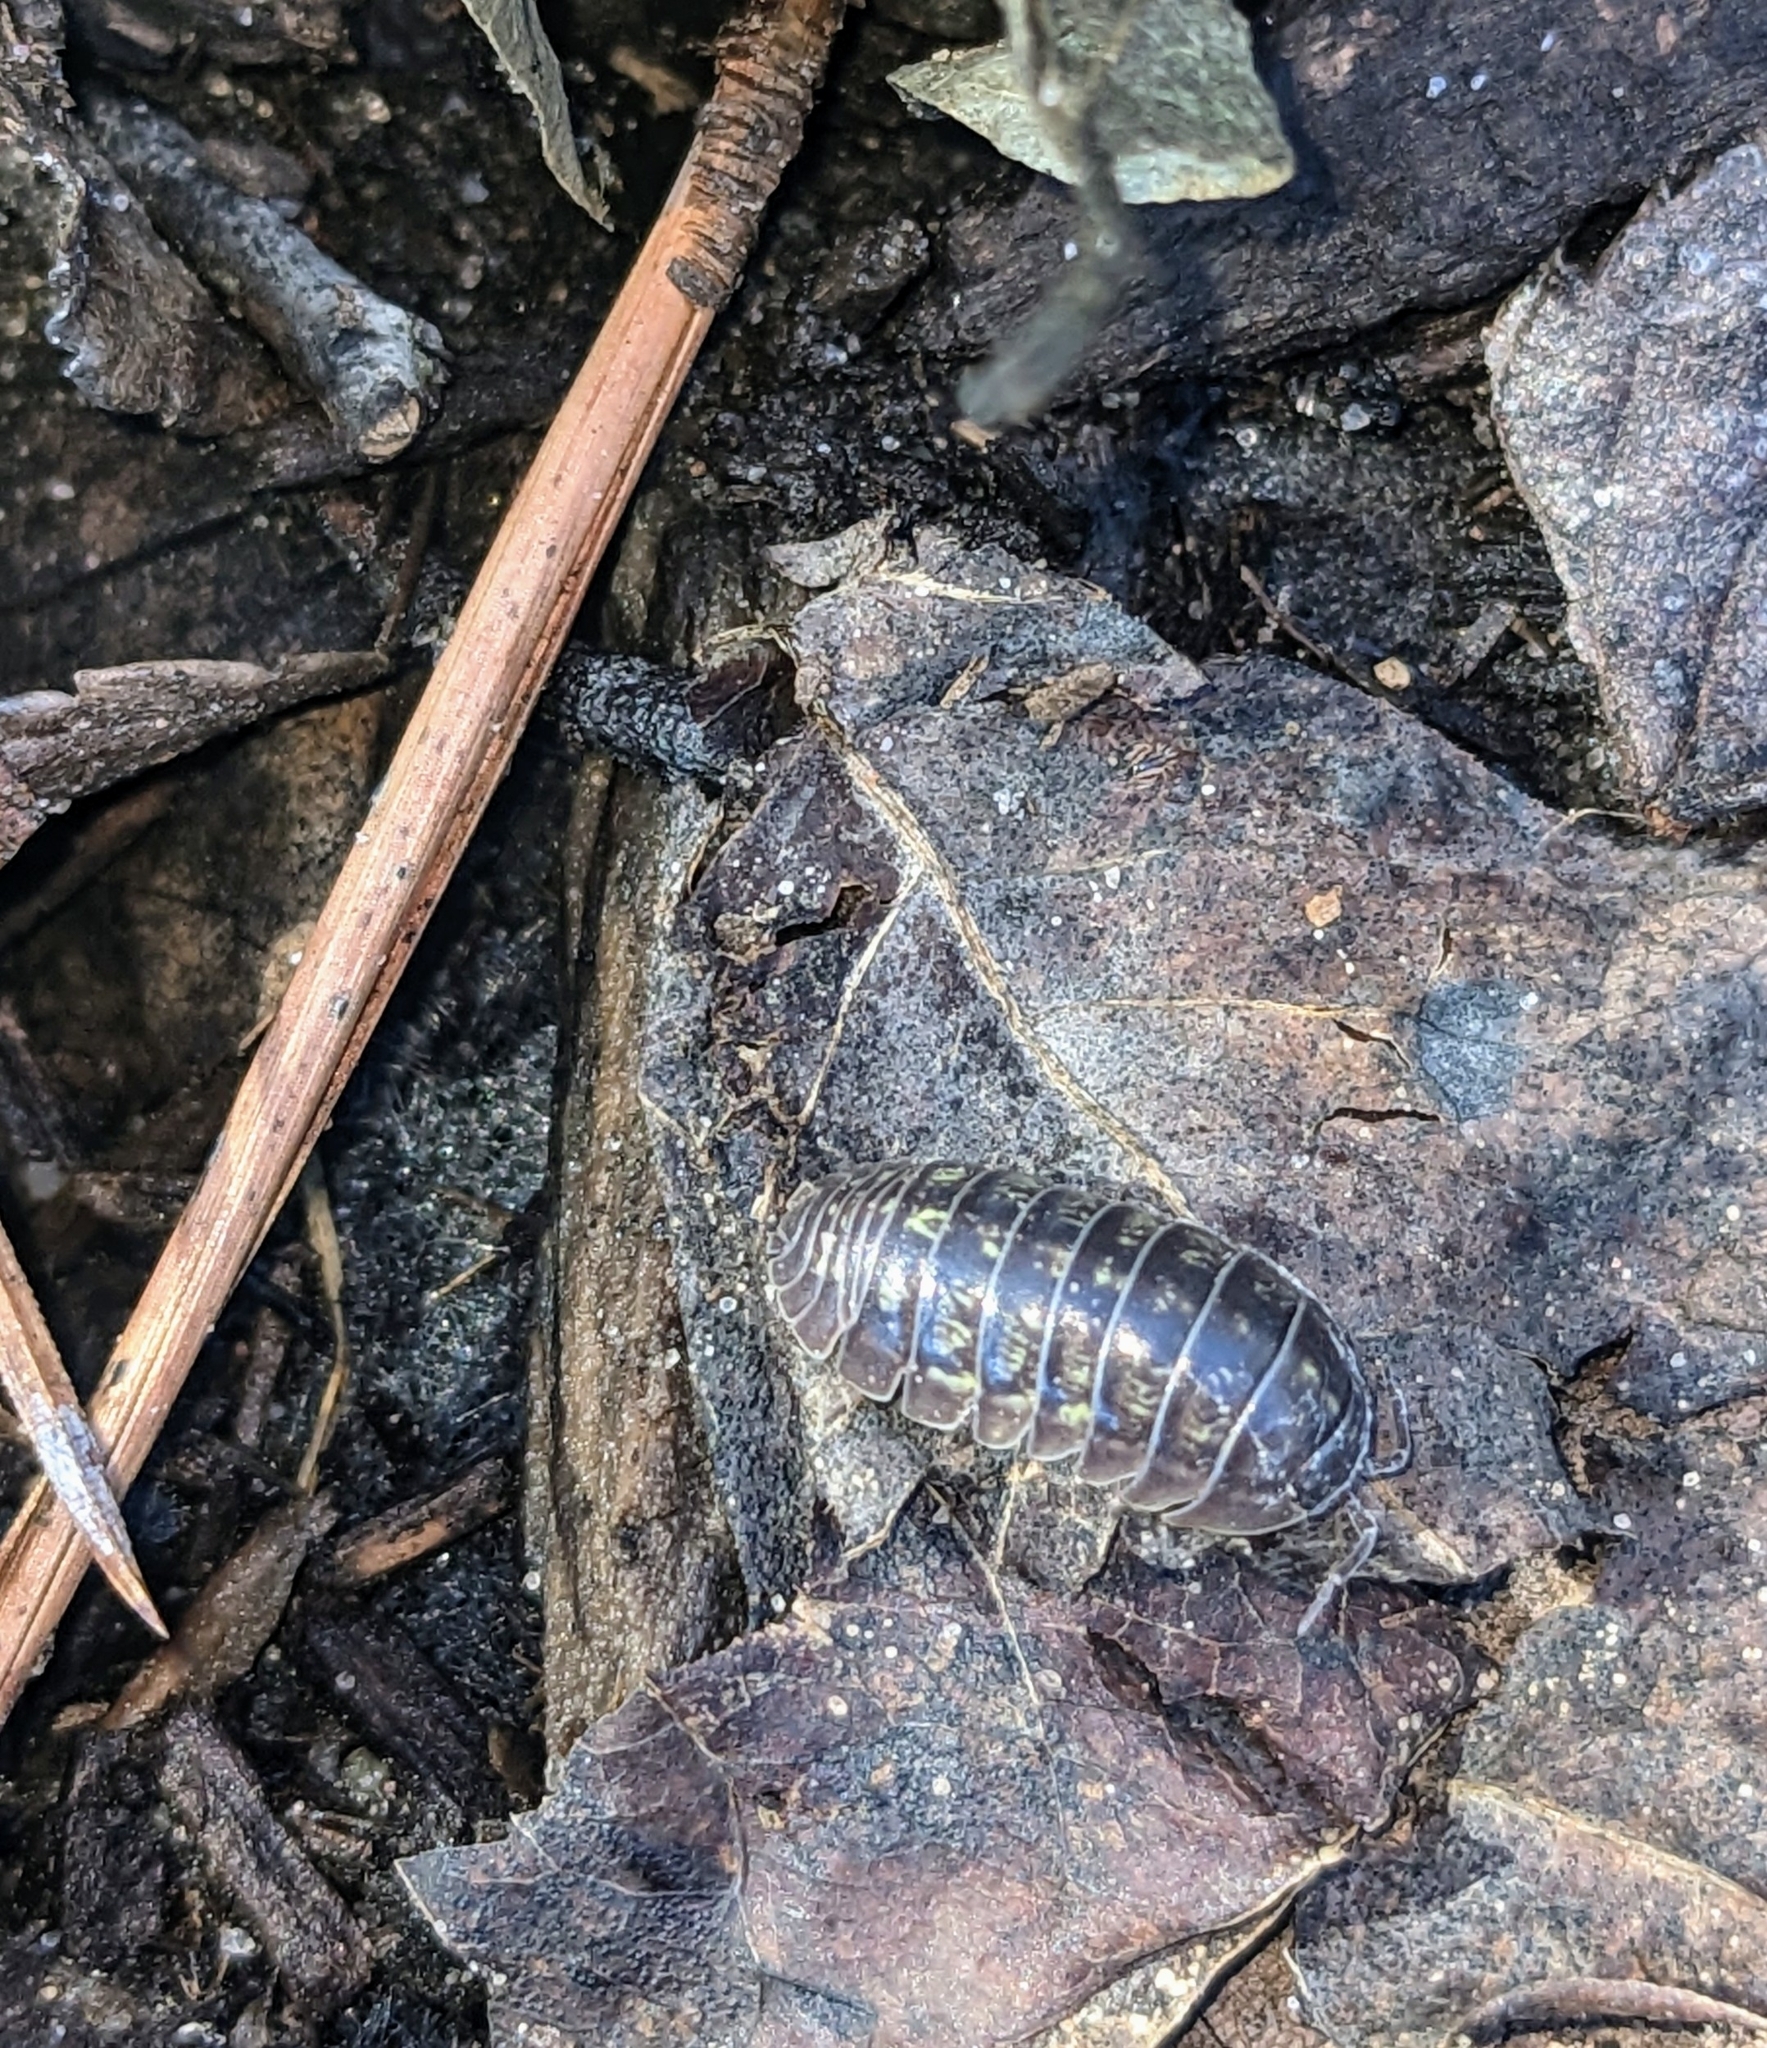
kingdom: Animalia
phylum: Arthropoda
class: Malacostraca
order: Isopoda
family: Armadillidiidae
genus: Armadillidium
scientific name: Armadillidium vulgare
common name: Common pill woodlouse
